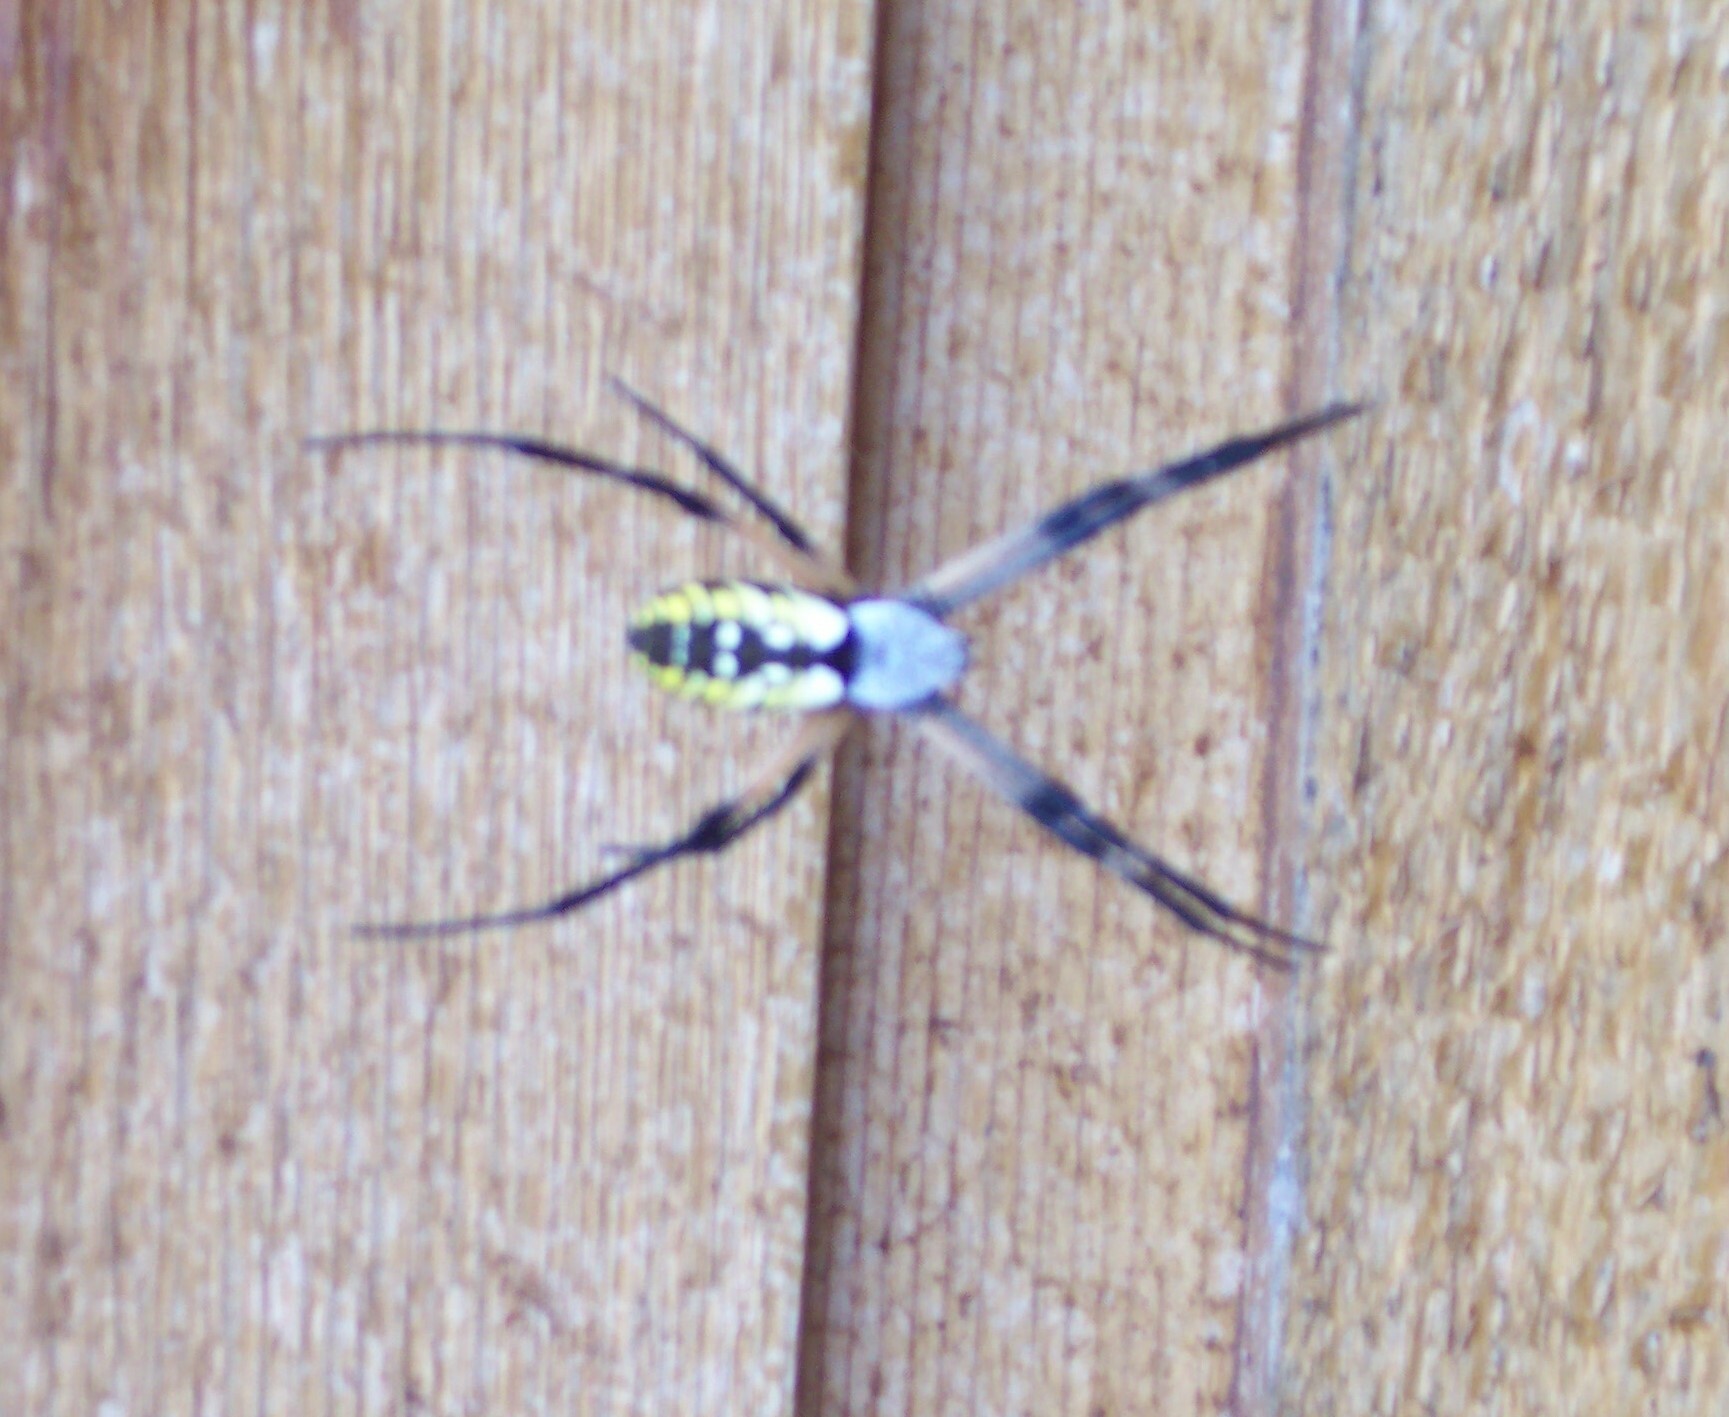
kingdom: Animalia
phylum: Arthropoda
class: Arachnida
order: Araneae
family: Araneidae
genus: Argiope
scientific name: Argiope aurantia
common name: Orb weavers
